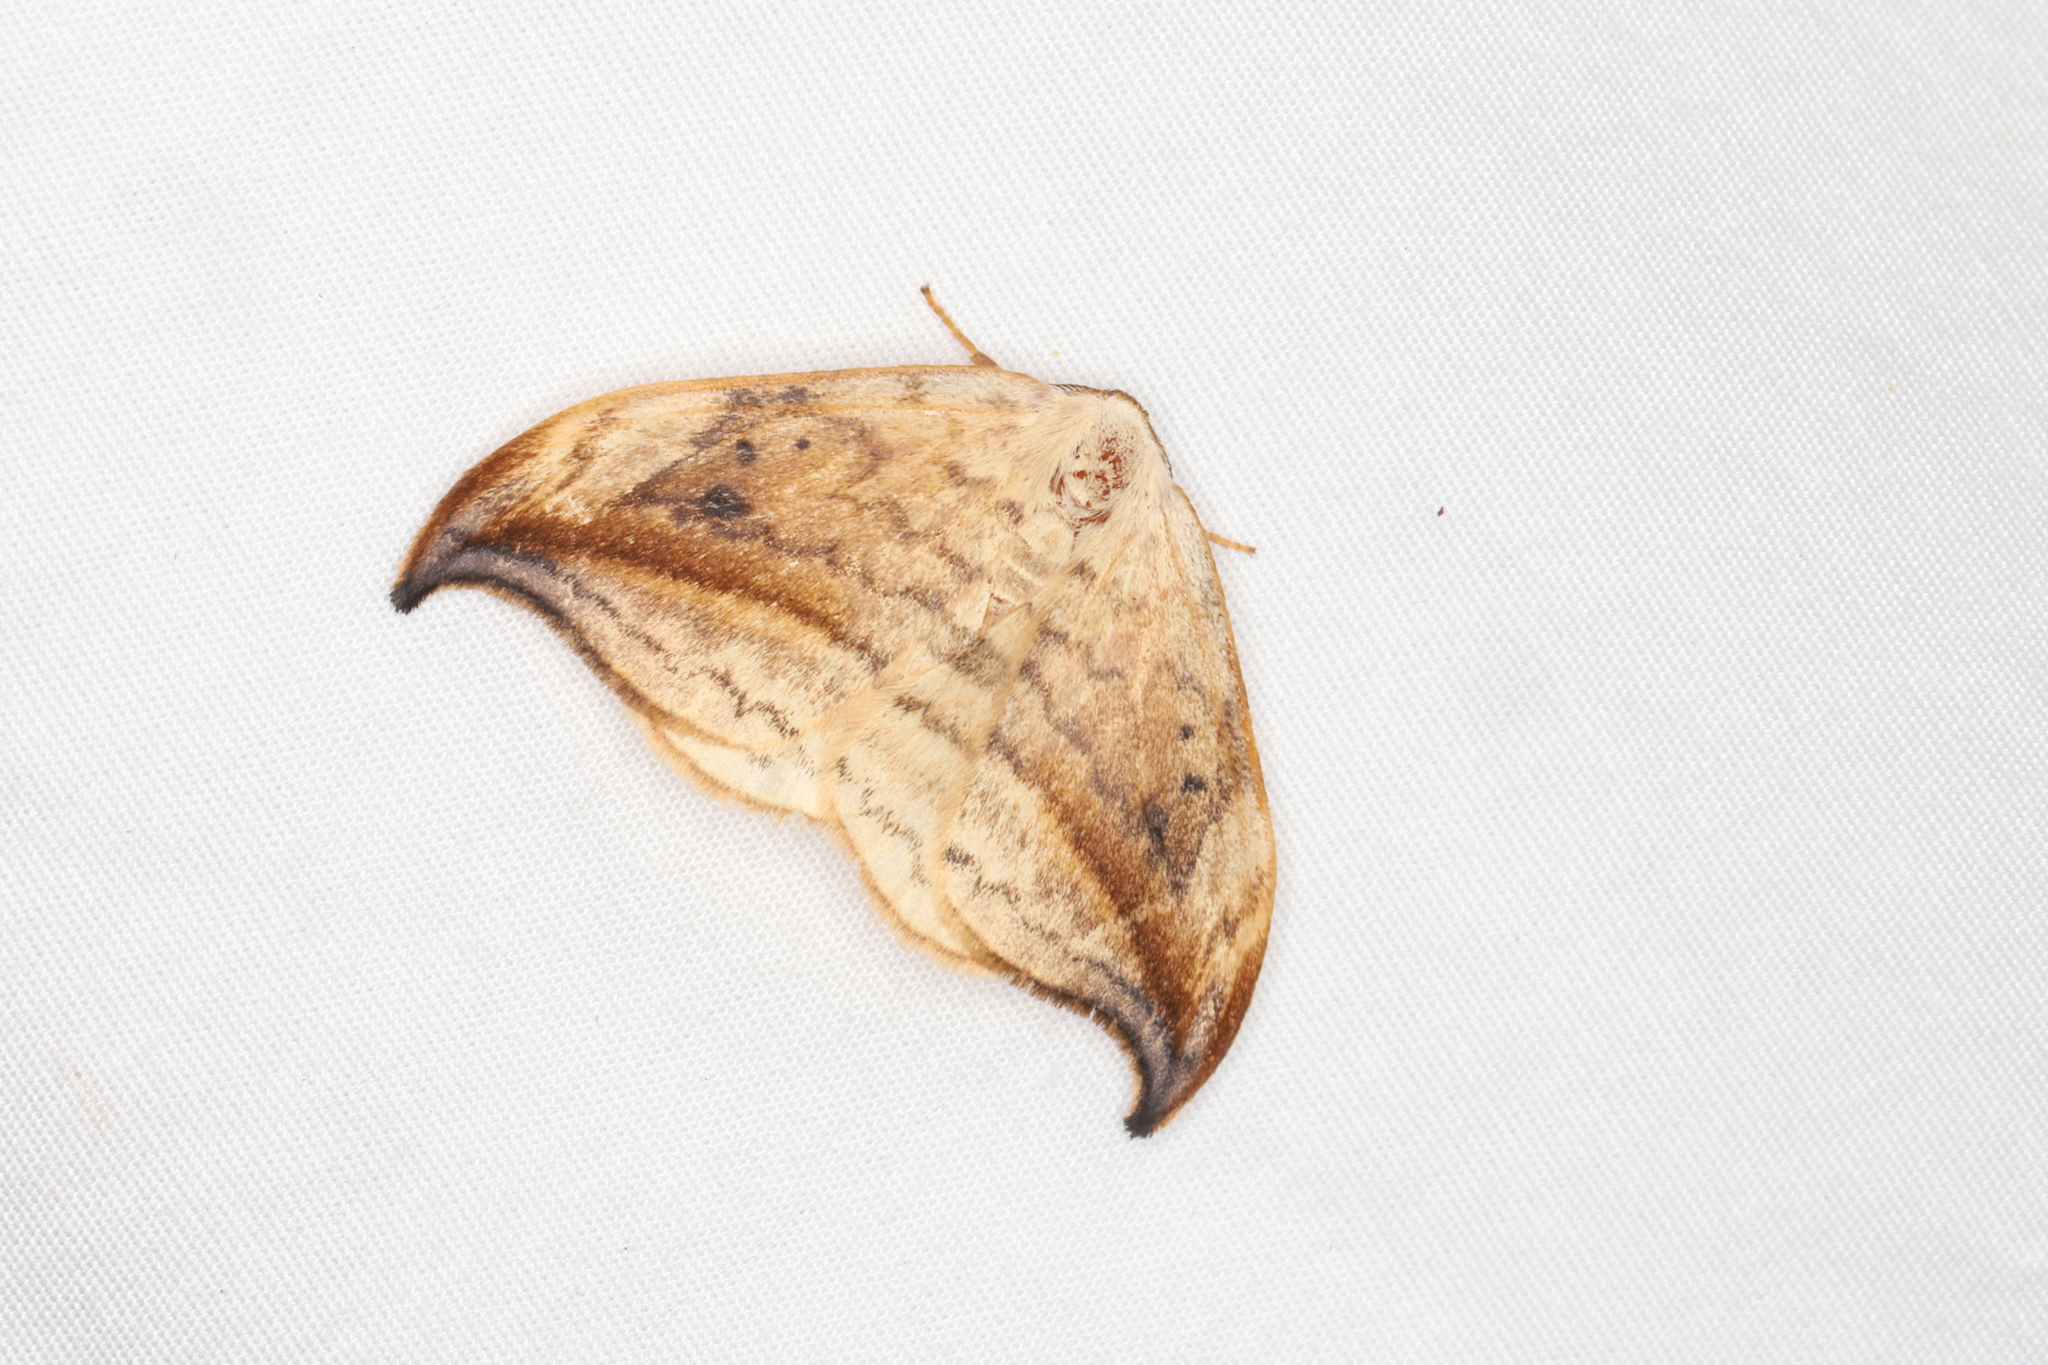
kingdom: Animalia
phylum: Arthropoda
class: Insecta
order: Lepidoptera
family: Drepanidae
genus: Drepana
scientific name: Drepana arcuata
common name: Arched hooktip moth
